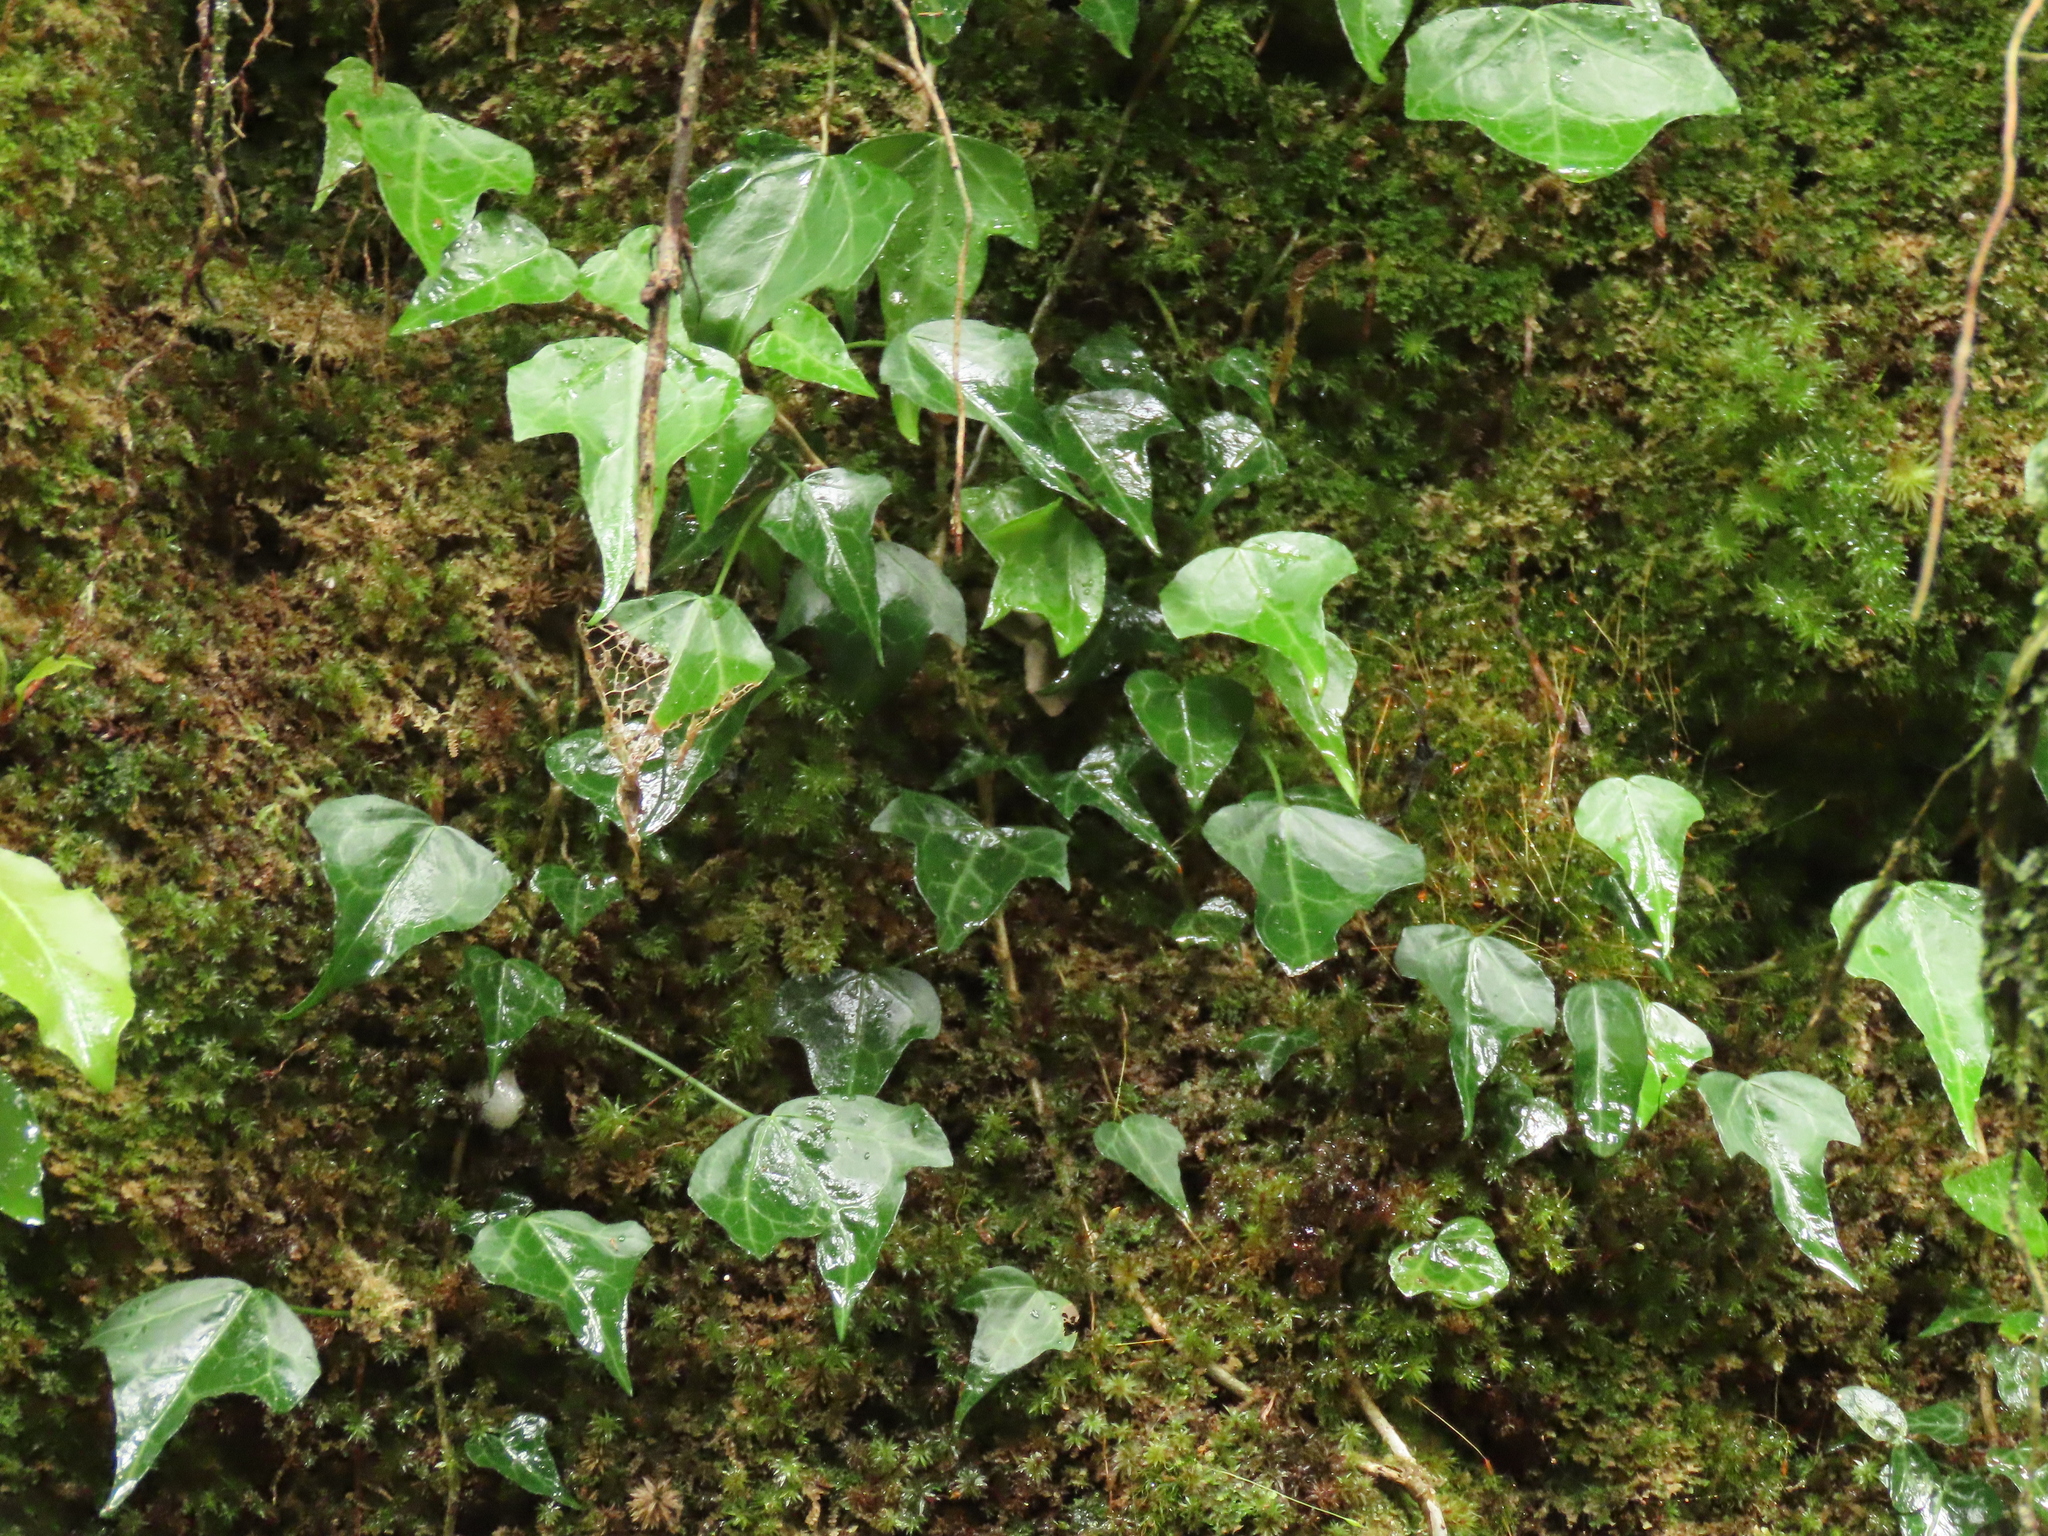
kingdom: Plantae
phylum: Tracheophyta
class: Magnoliopsida
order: Apiales
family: Araliaceae
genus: Hedera
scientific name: Hedera rhombea
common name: Japanese ivy
